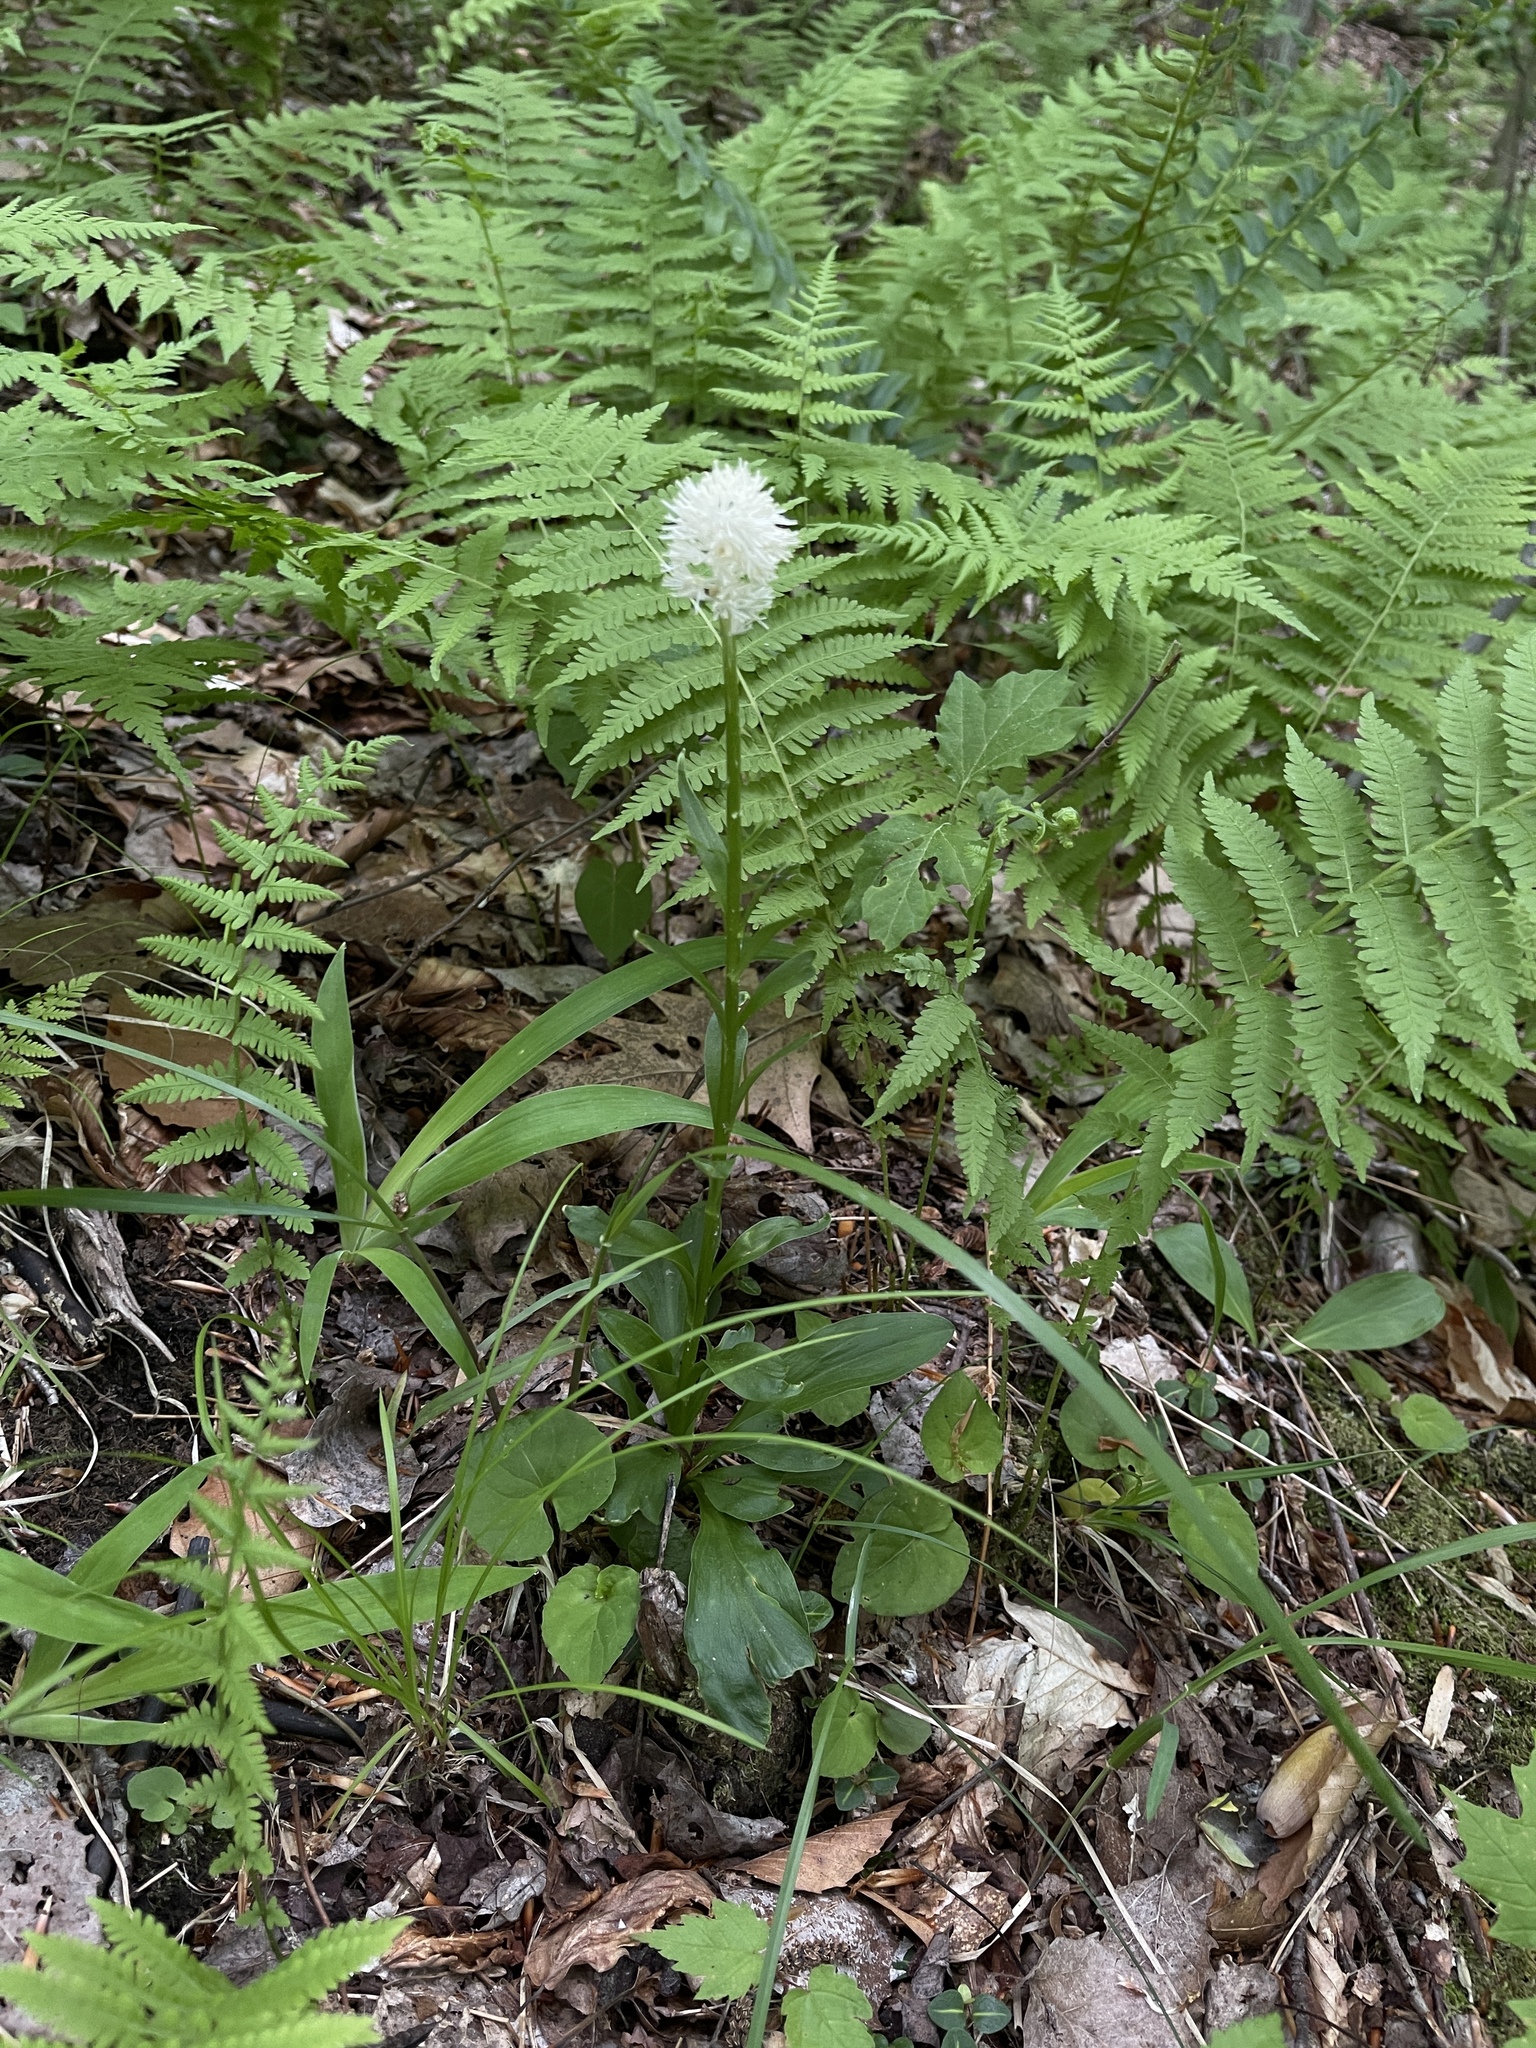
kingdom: Plantae
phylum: Tracheophyta
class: Liliopsida
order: Liliales
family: Melanthiaceae
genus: Chamaelirium
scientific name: Chamaelirium luteum
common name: Fairy-wand
